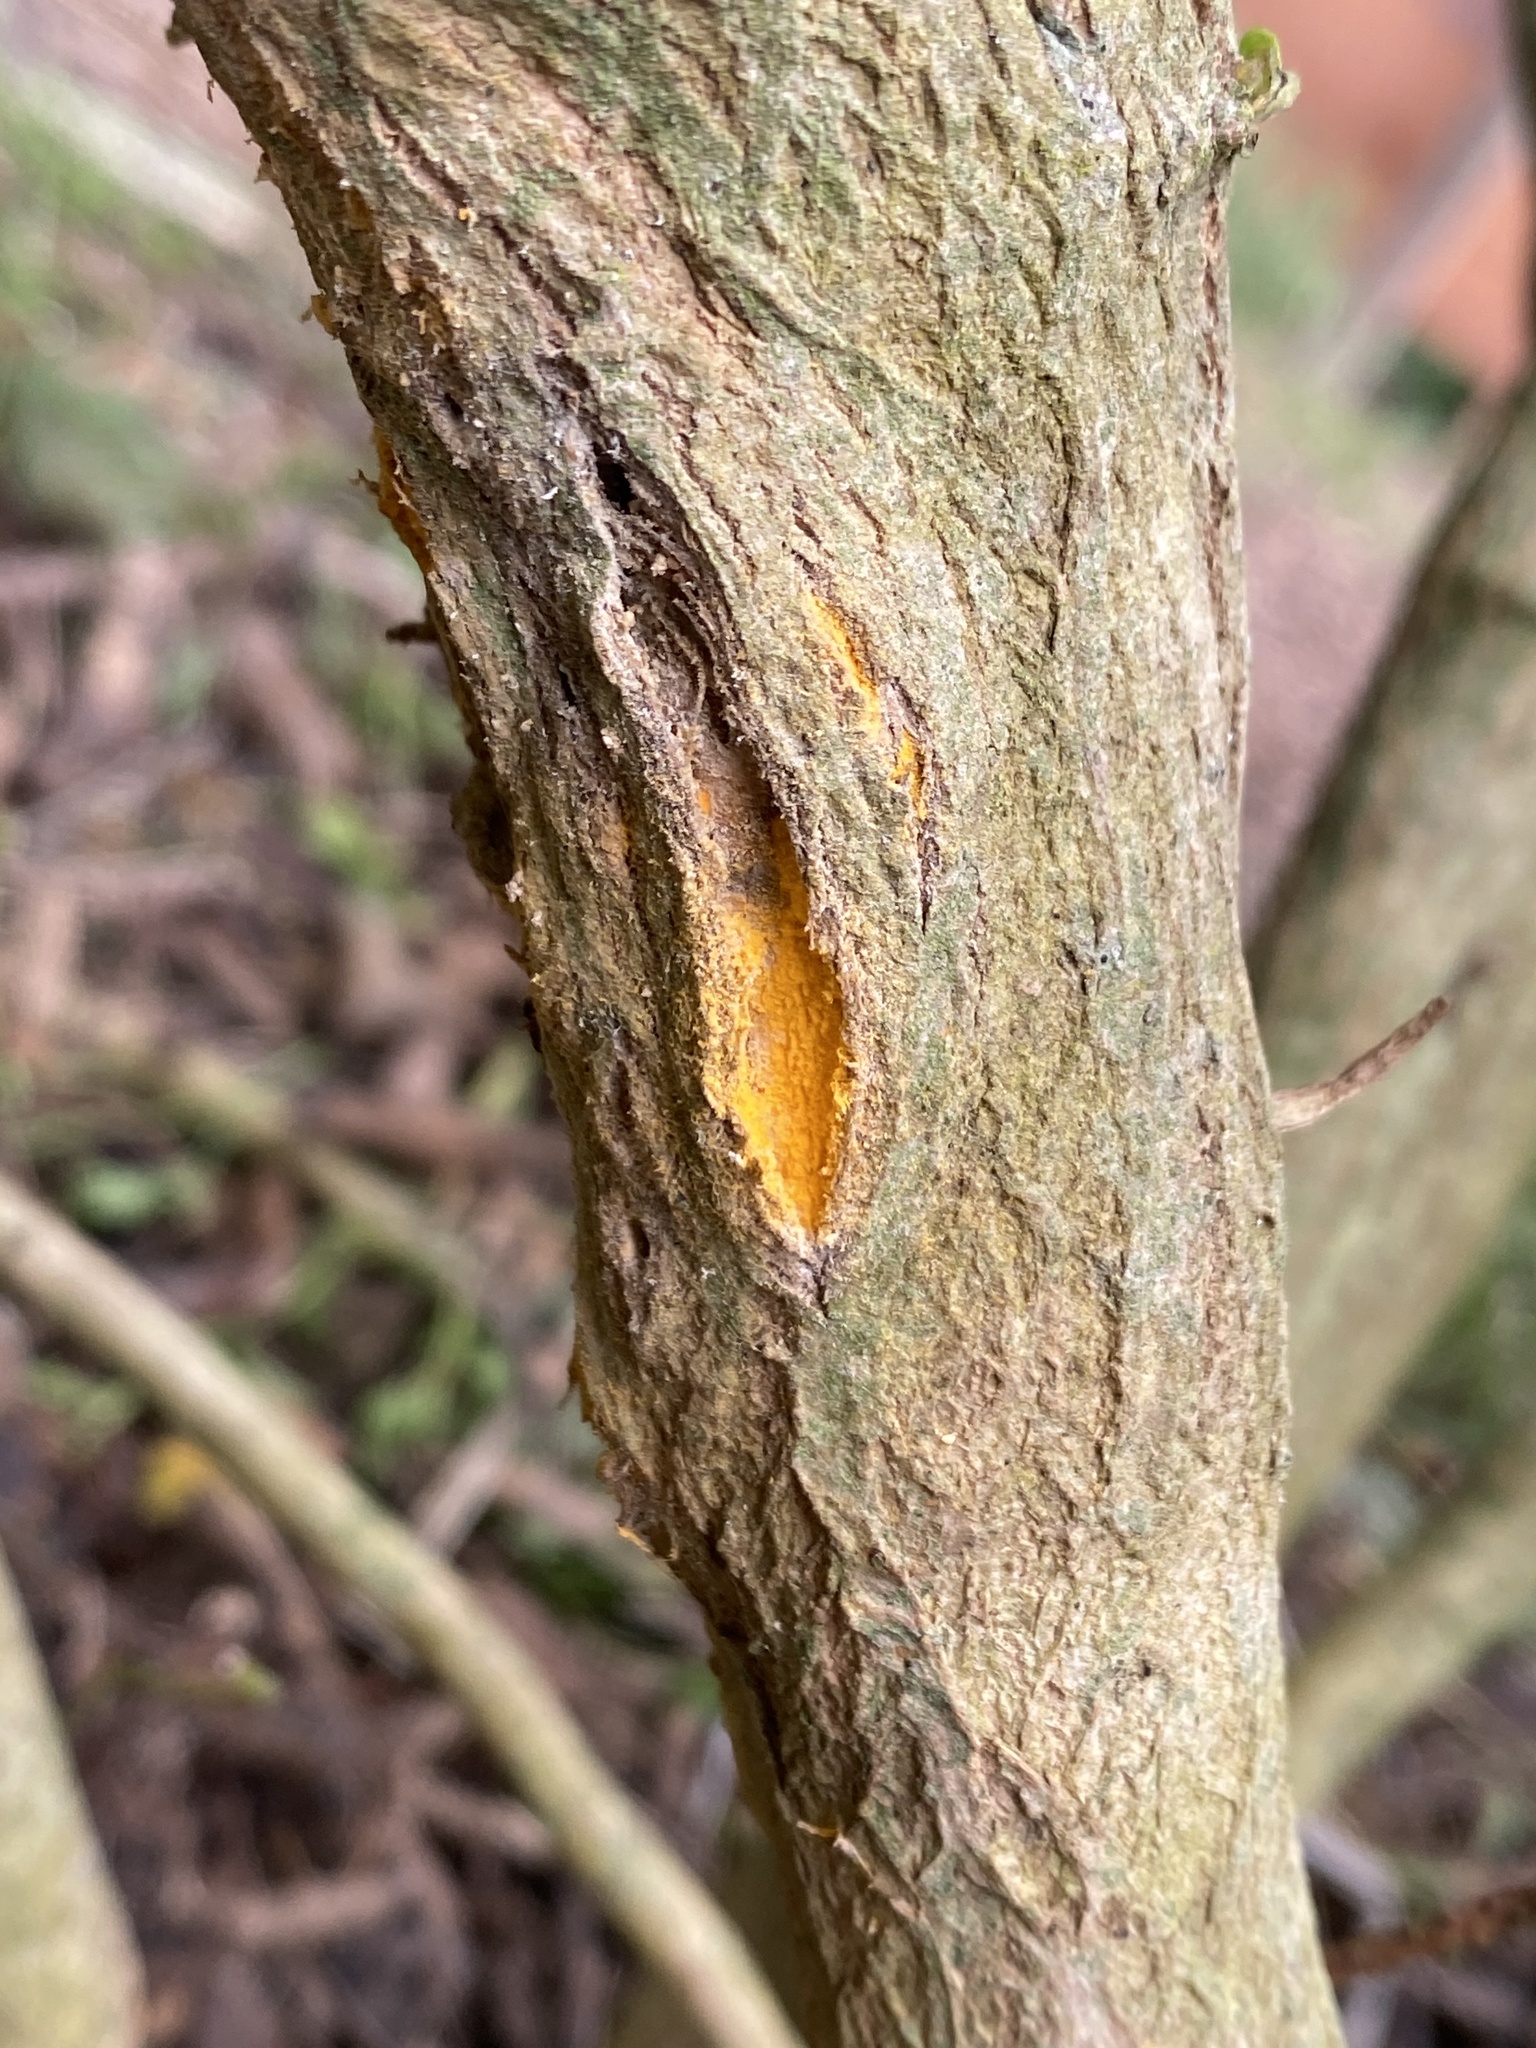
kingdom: Fungi
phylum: Basidiomycota
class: Pucciniomycetes
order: Pucciniales
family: Pucciniaceae
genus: Eriosporangium
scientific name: Eriosporangium evadens
